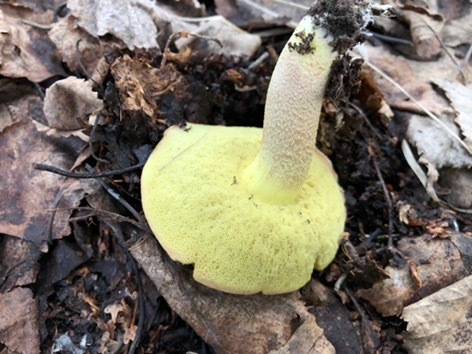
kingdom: Fungi
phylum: Basidiomycota
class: Agaricomycetes
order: Boletales
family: Boletaceae
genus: Hemileccinum
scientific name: Hemileccinum subglabripes
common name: Smoothish-stemmed bolete
